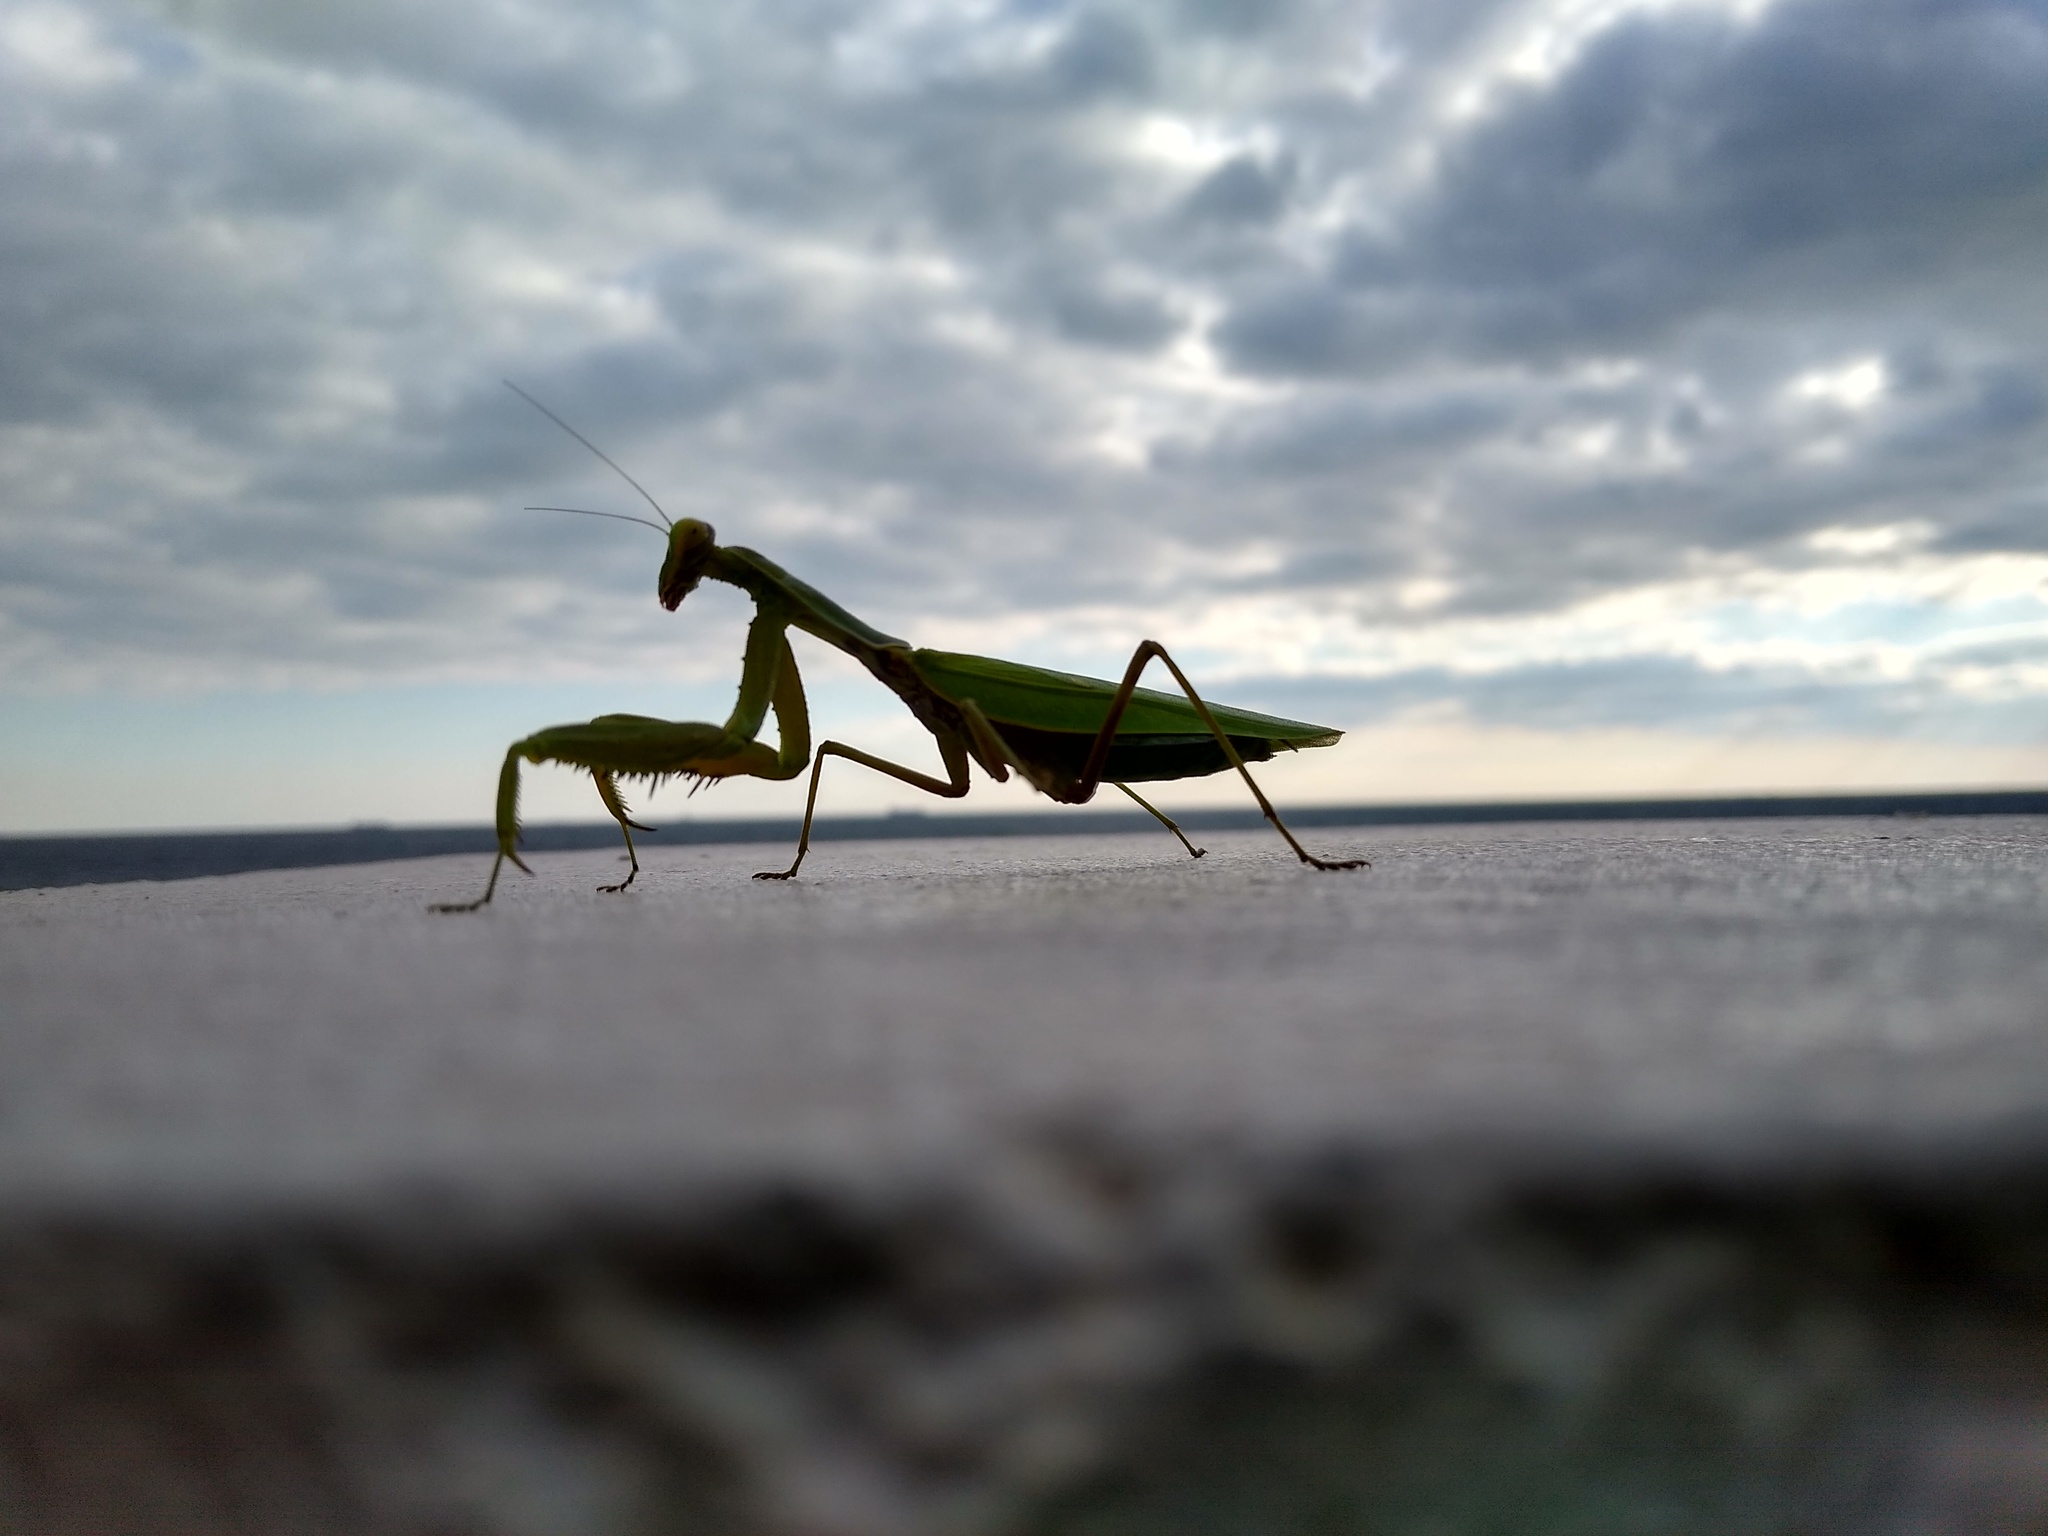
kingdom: Animalia
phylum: Arthropoda
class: Insecta
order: Mantodea
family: Mantidae
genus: Hierodula
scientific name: Hierodula transcaucasica
